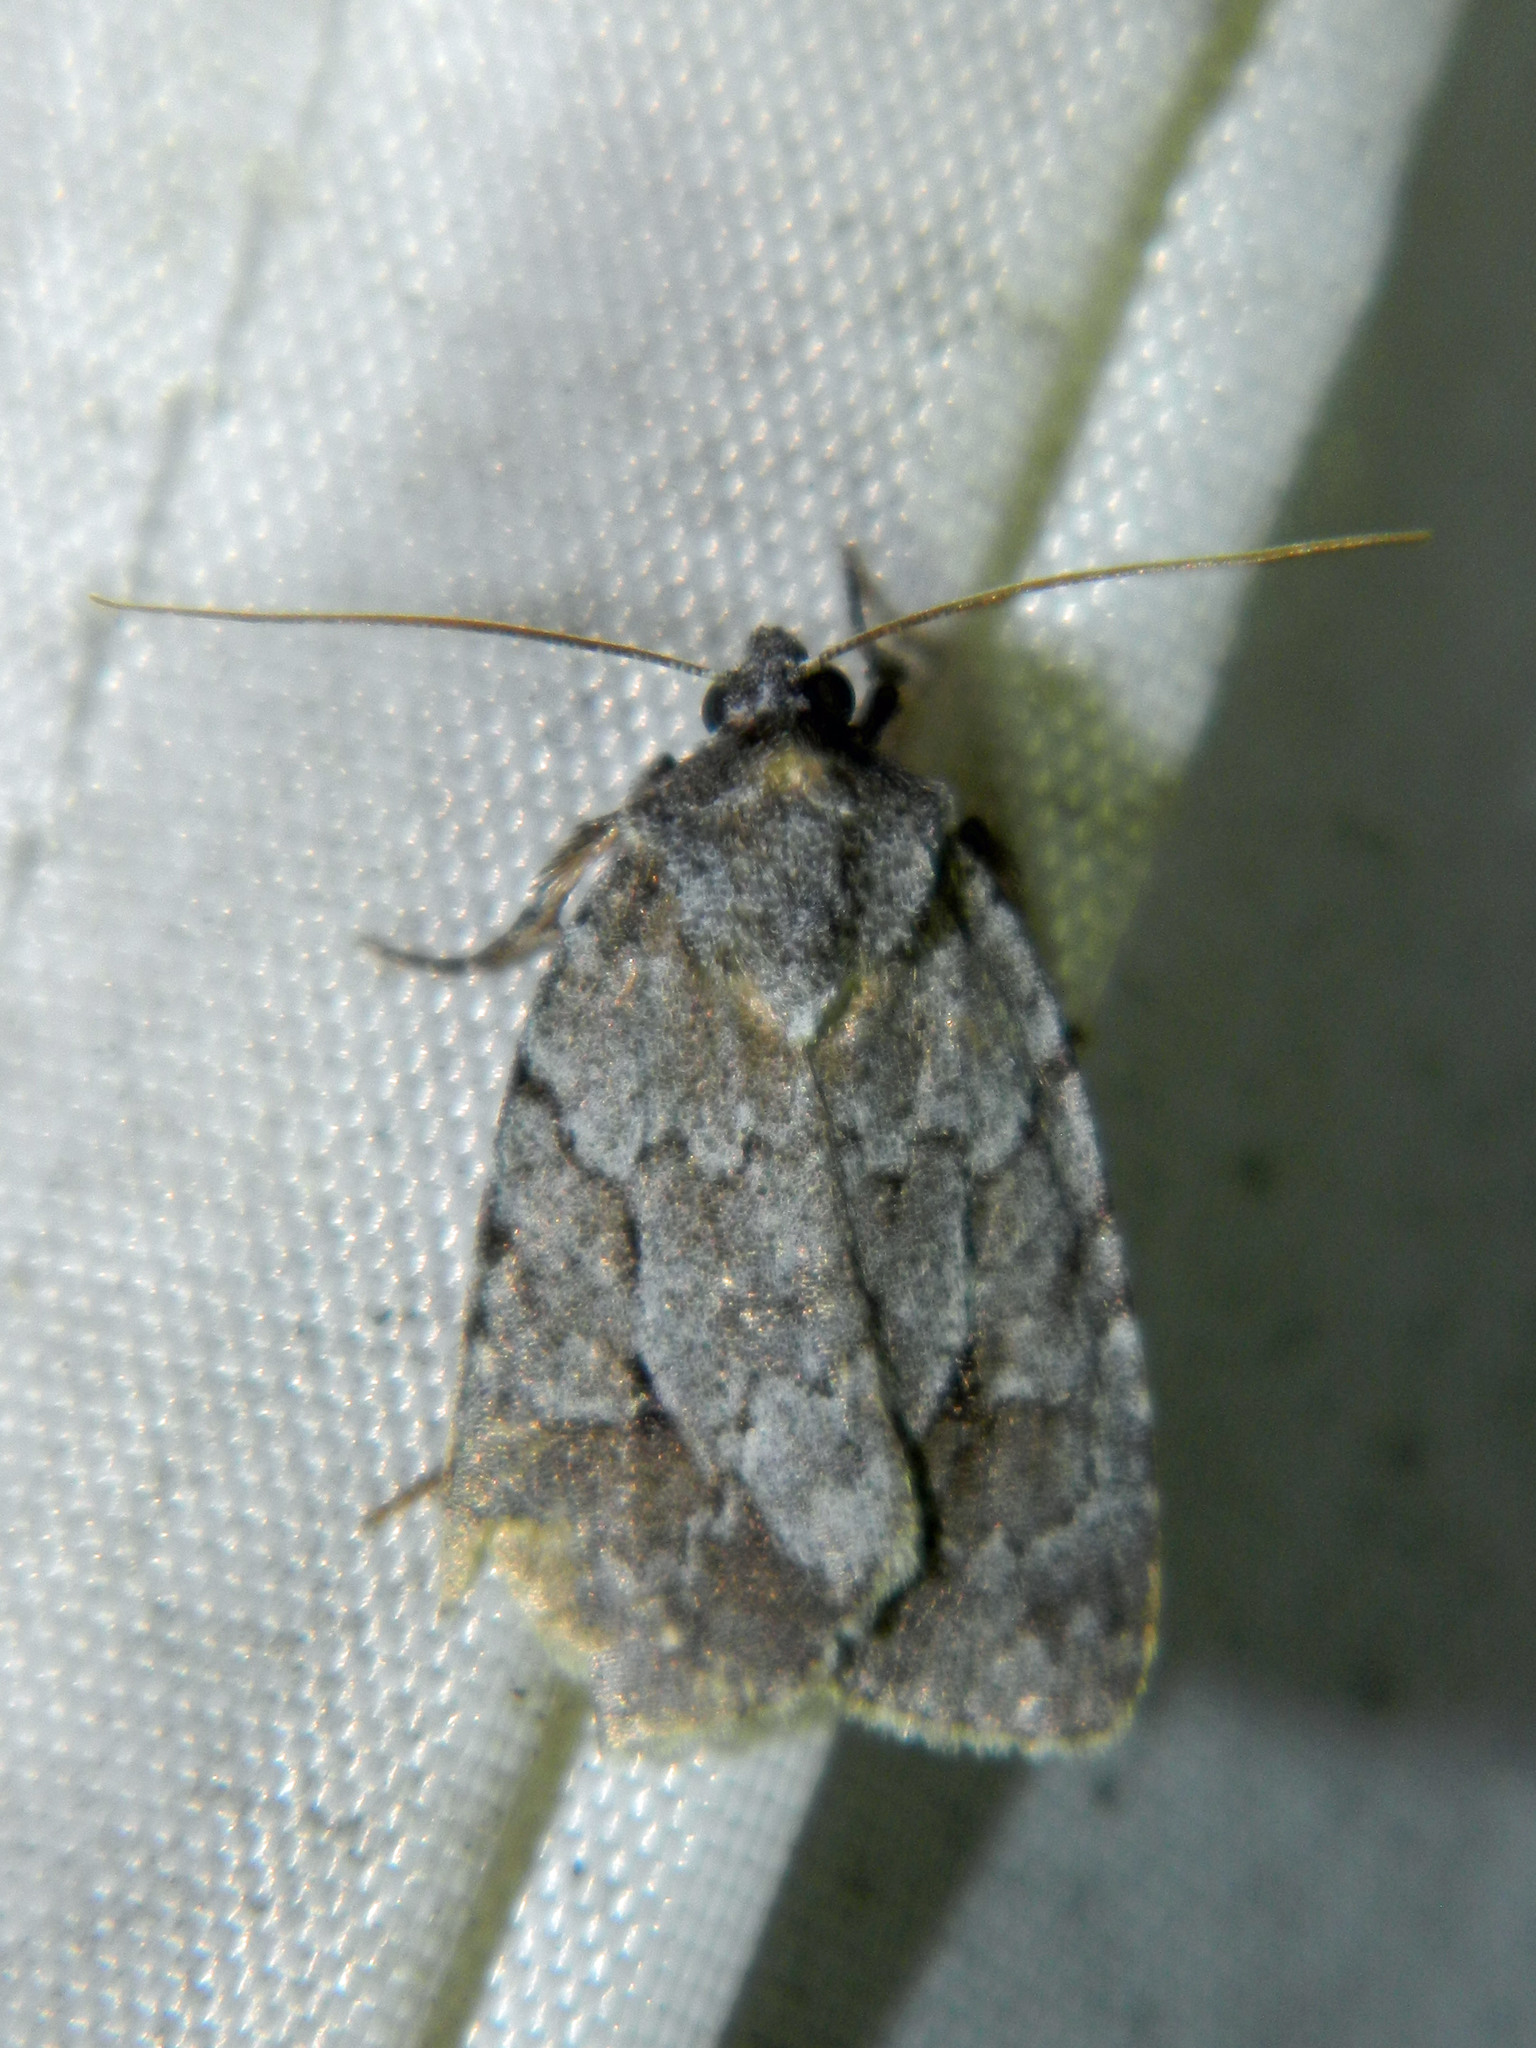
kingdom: Animalia
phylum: Arthropoda
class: Insecta
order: Lepidoptera
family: Noctuidae
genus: Sympistis
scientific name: Sympistis dentata
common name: Blueberry sallow
